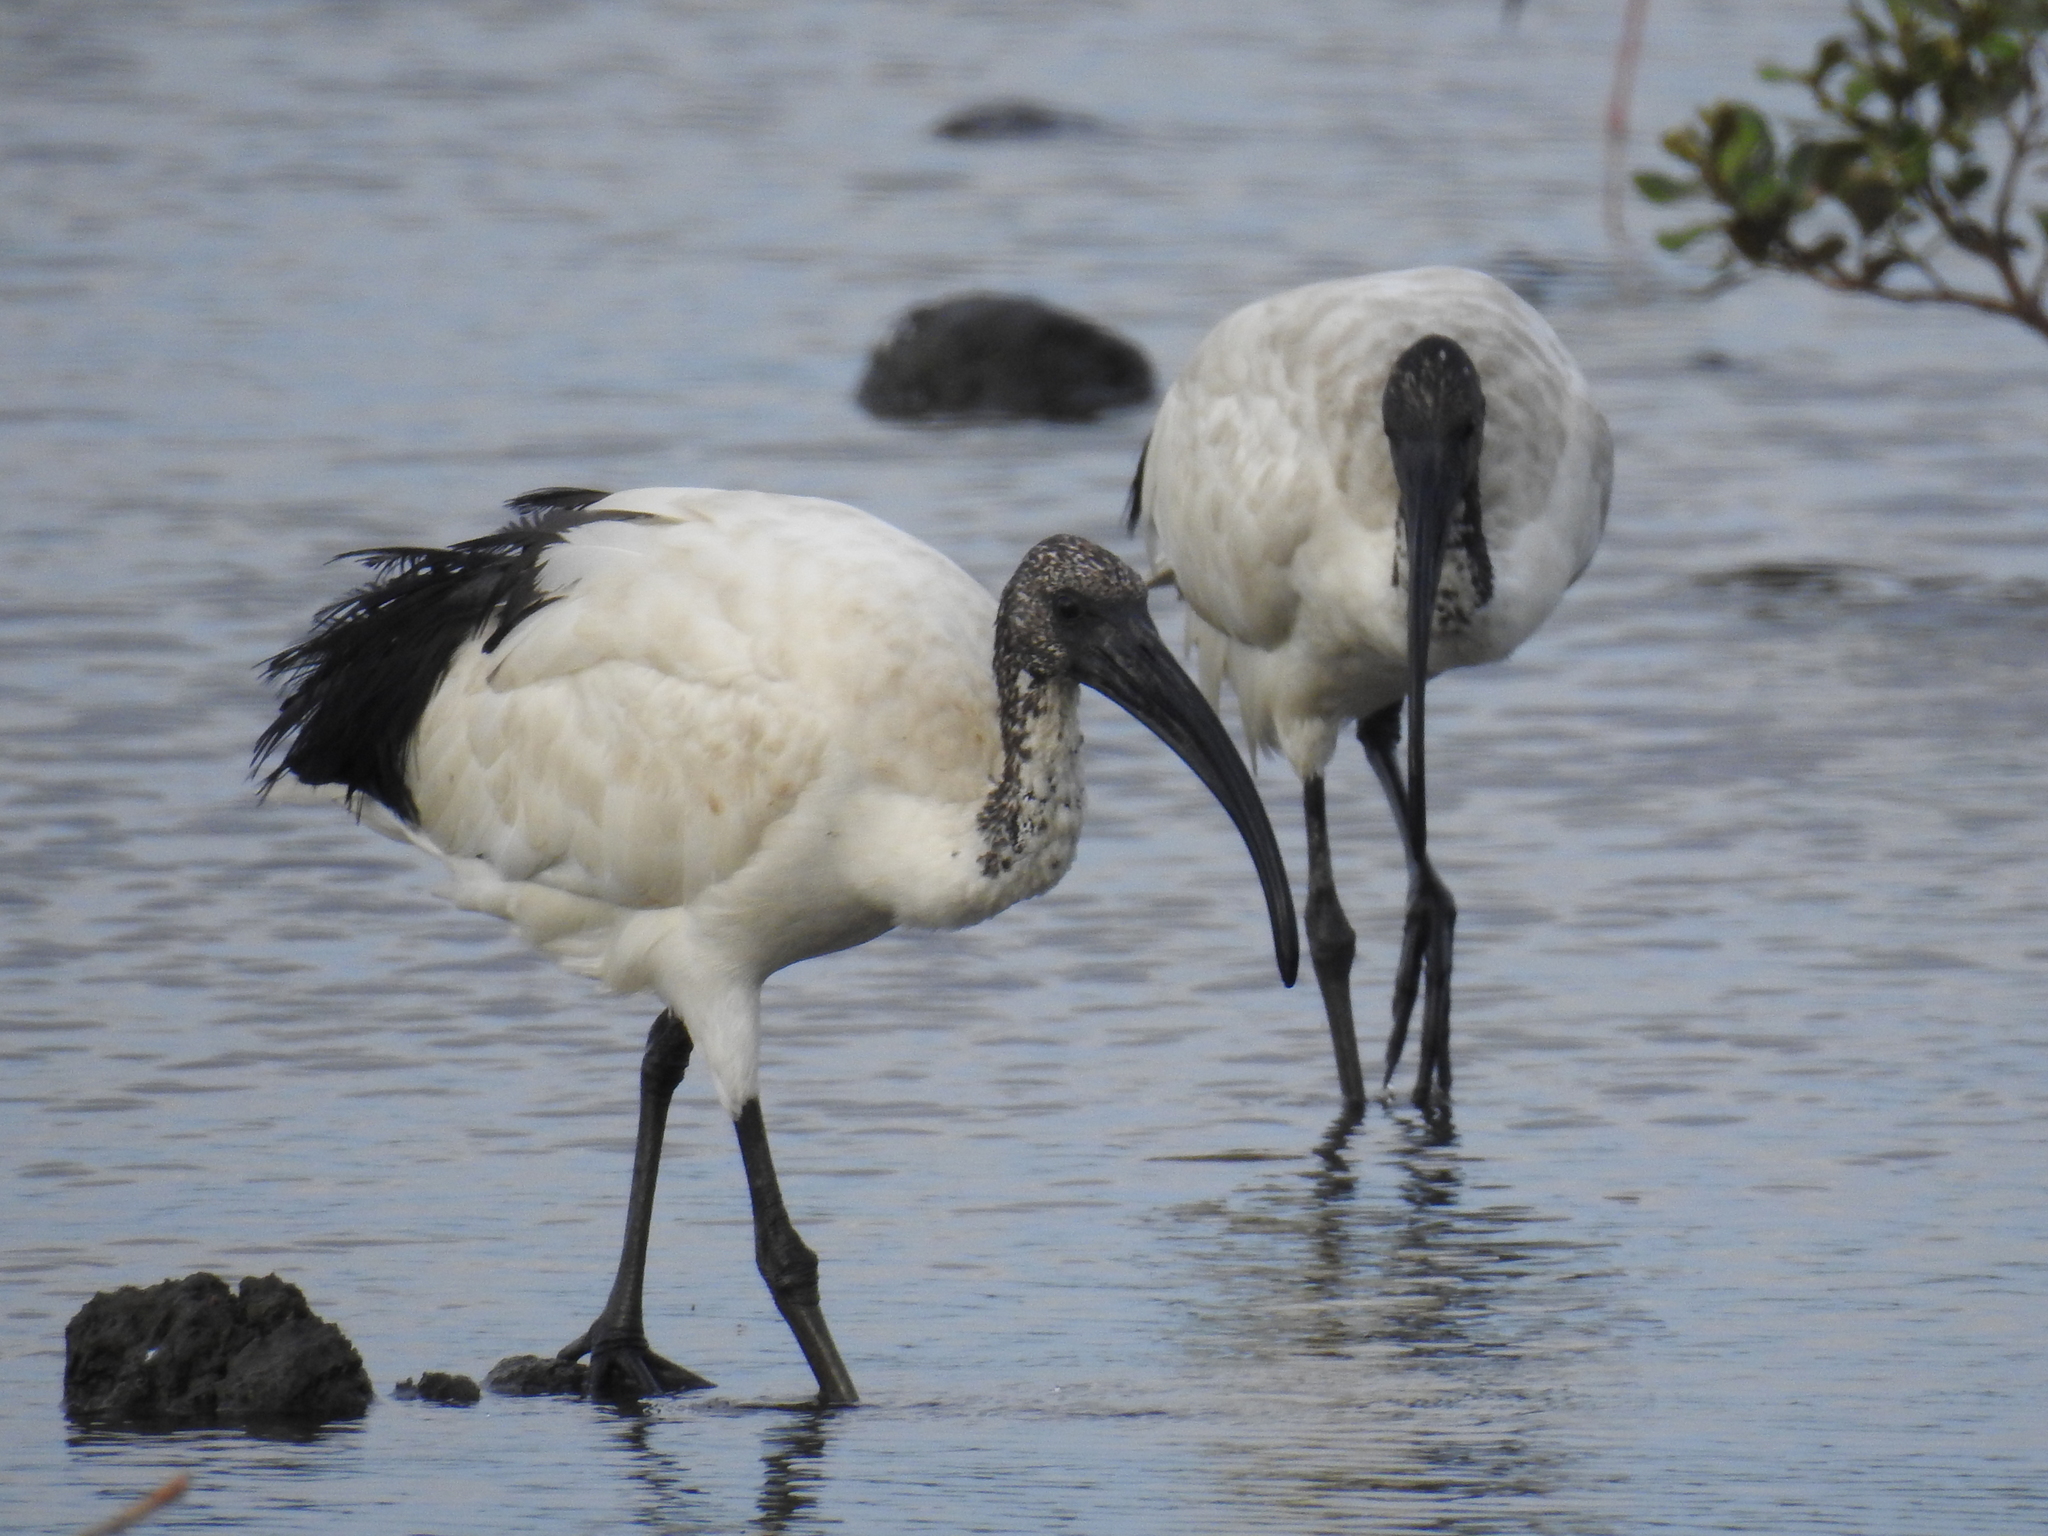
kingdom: Animalia
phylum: Chordata
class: Aves
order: Pelecaniformes
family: Threskiornithidae
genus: Threskiornis
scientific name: Threskiornis aethiopicus
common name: Sacred ibis
